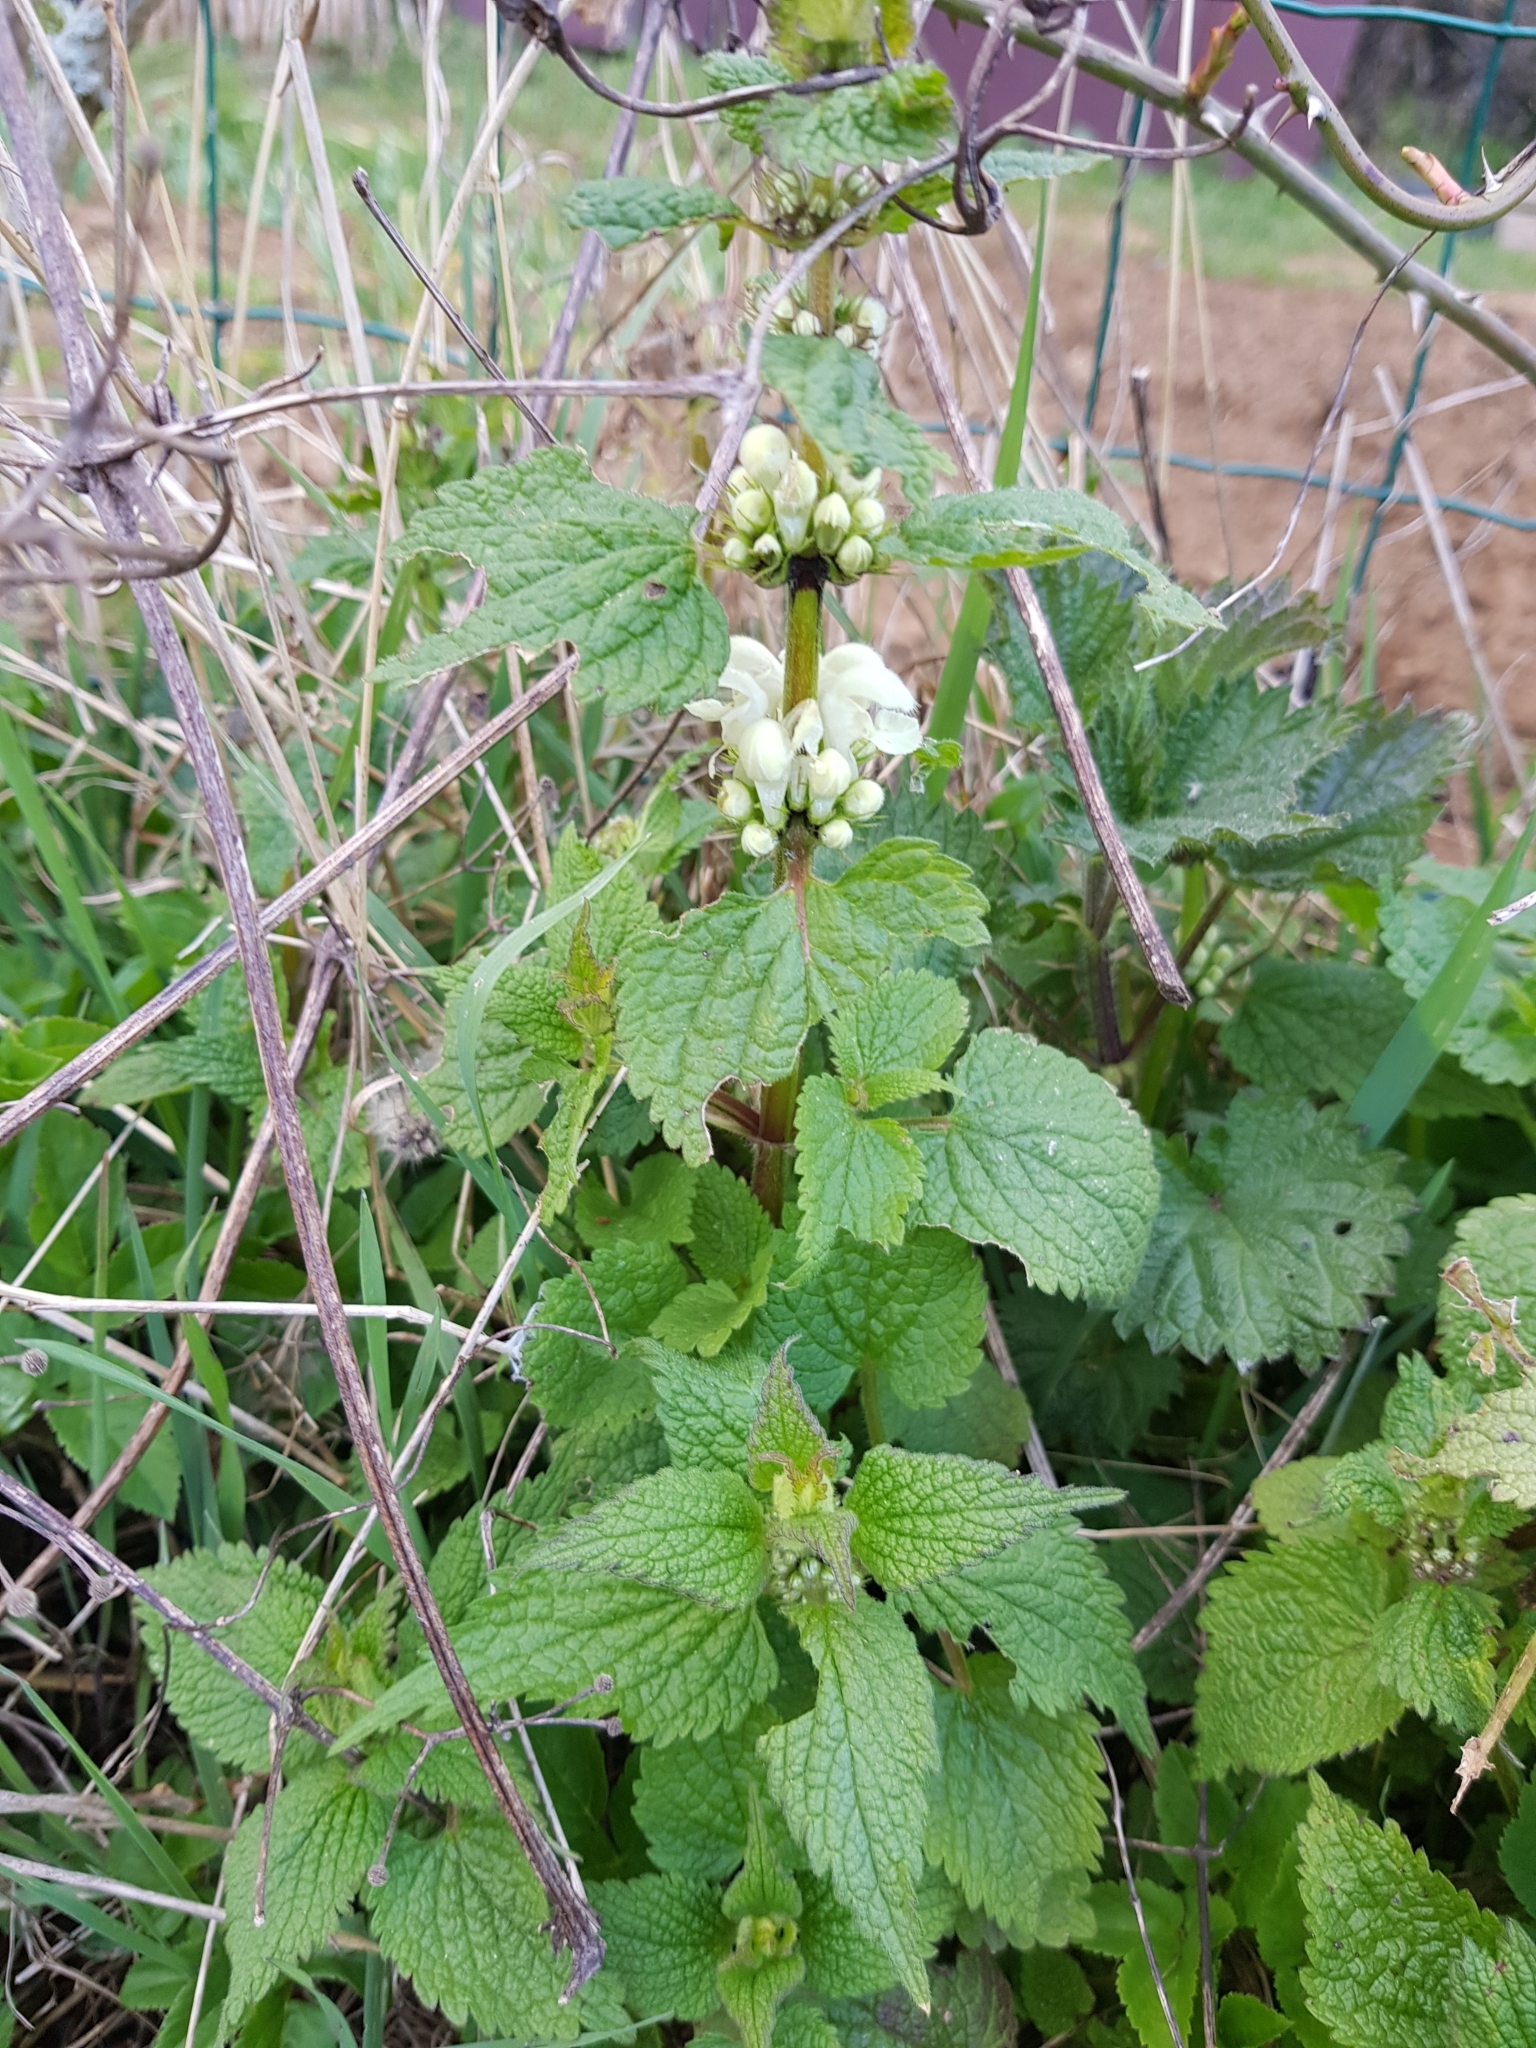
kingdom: Plantae
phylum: Tracheophyta
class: Magnoliopsida
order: Lamiales
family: Lamiaceae
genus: Lamium
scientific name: Lamium album
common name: White dead-nettle
